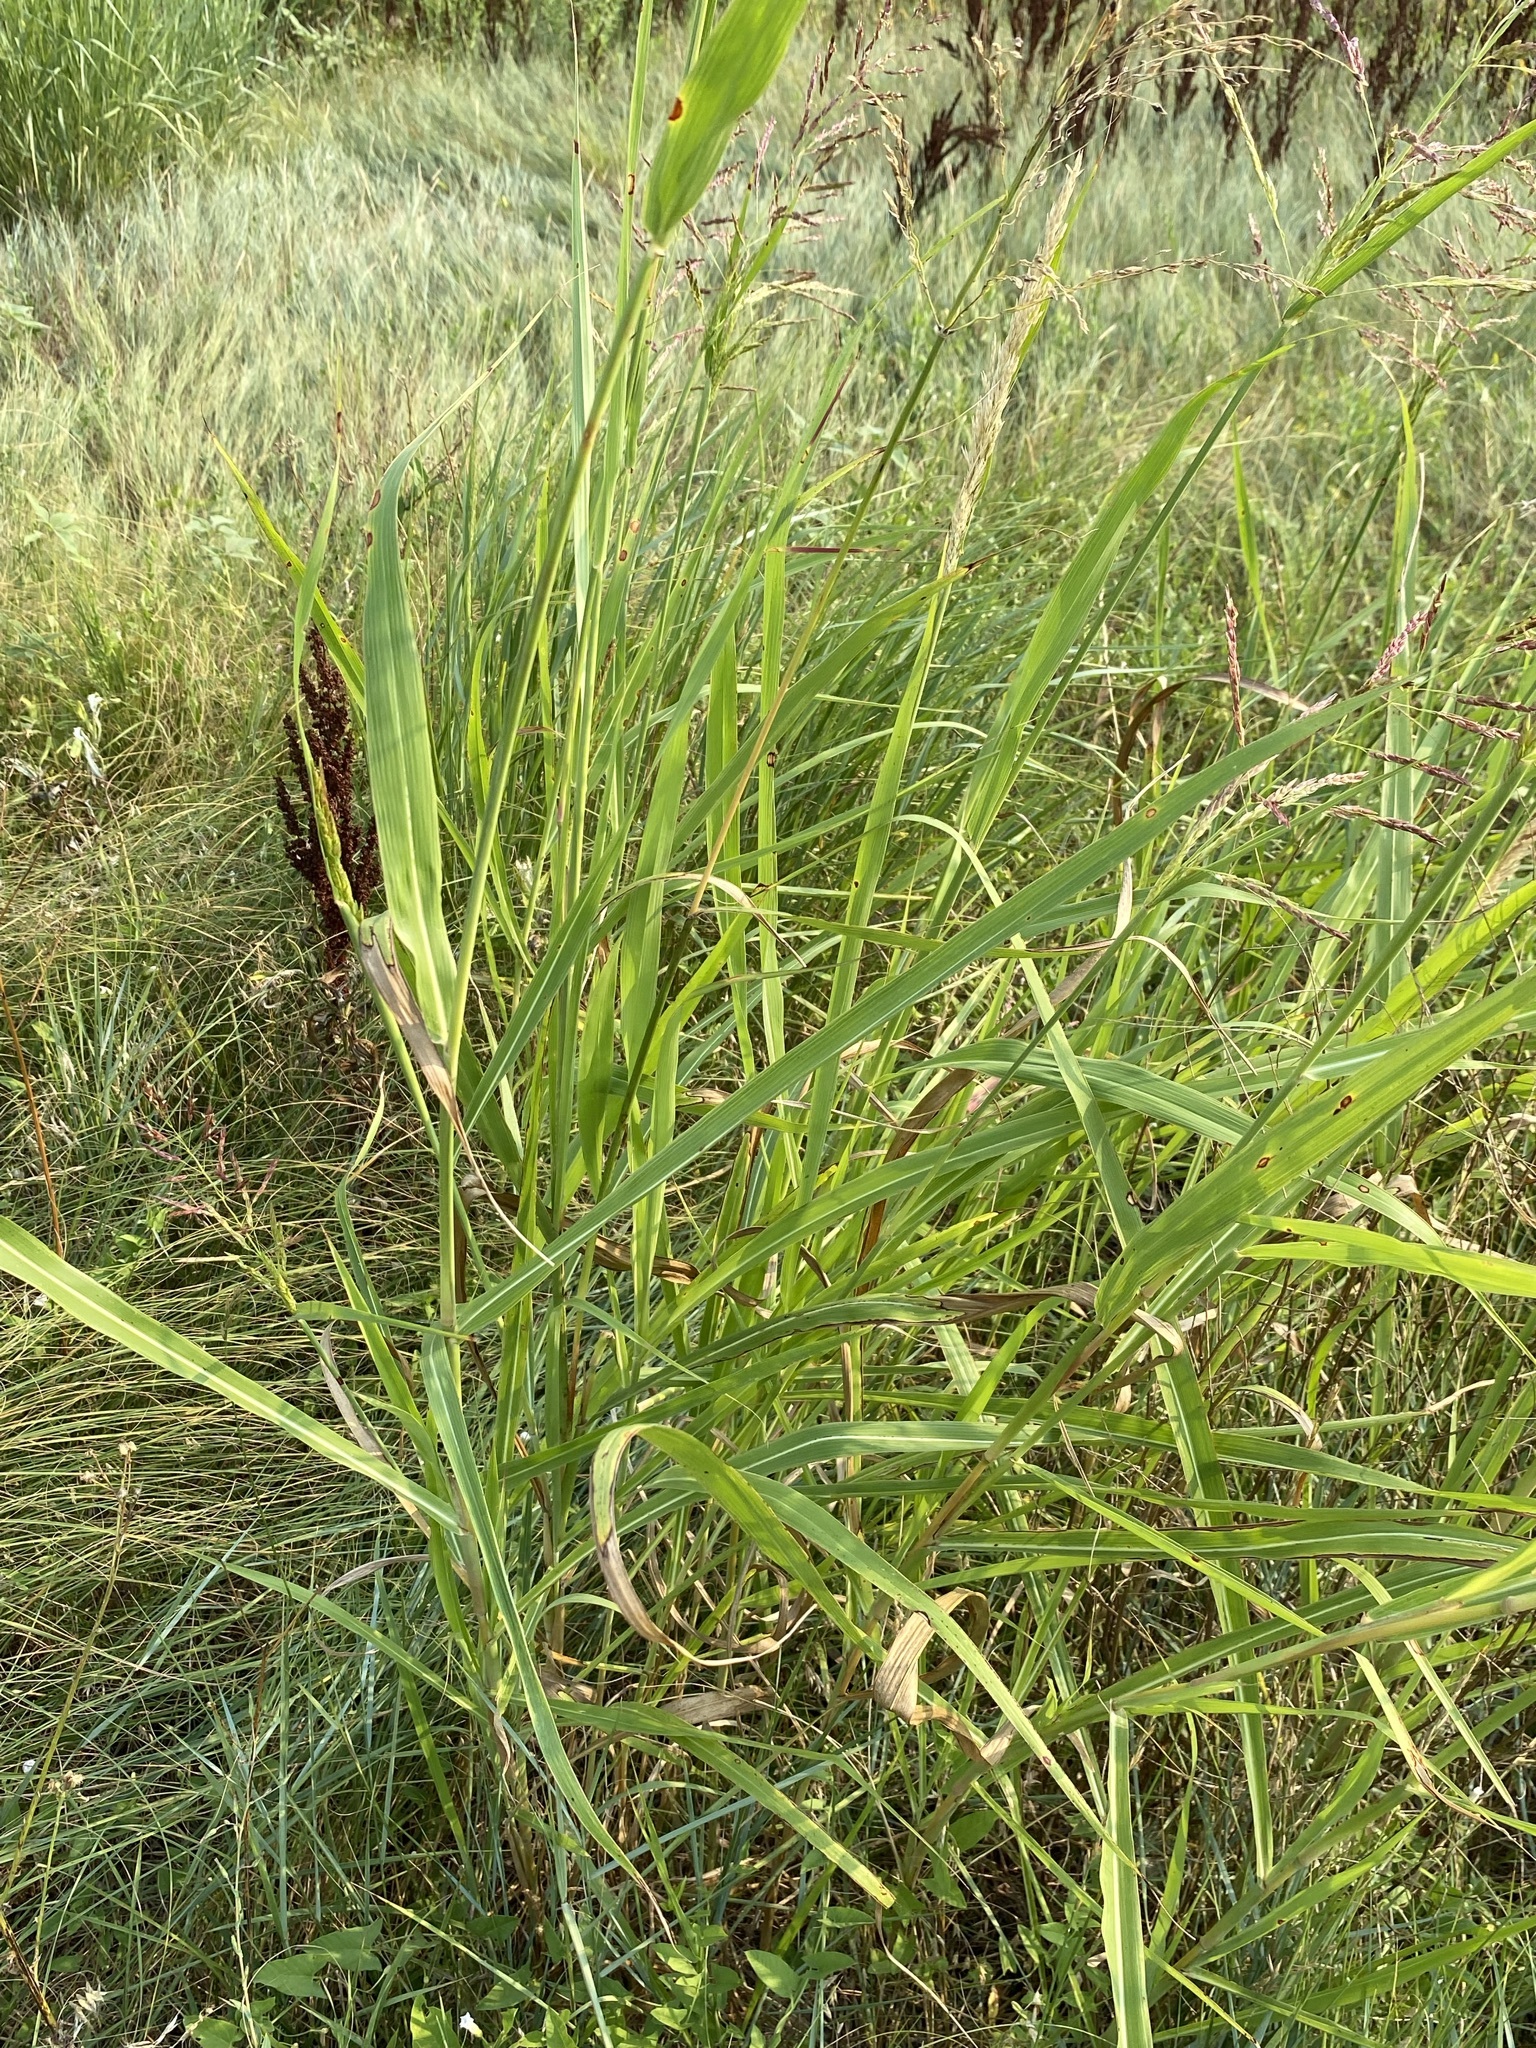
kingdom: Plantae
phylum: Tracheophyta
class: Liliopsida
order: Poales
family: Poaceae
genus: Sorghum
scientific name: Sorghum halepense
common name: Johnson-grass
